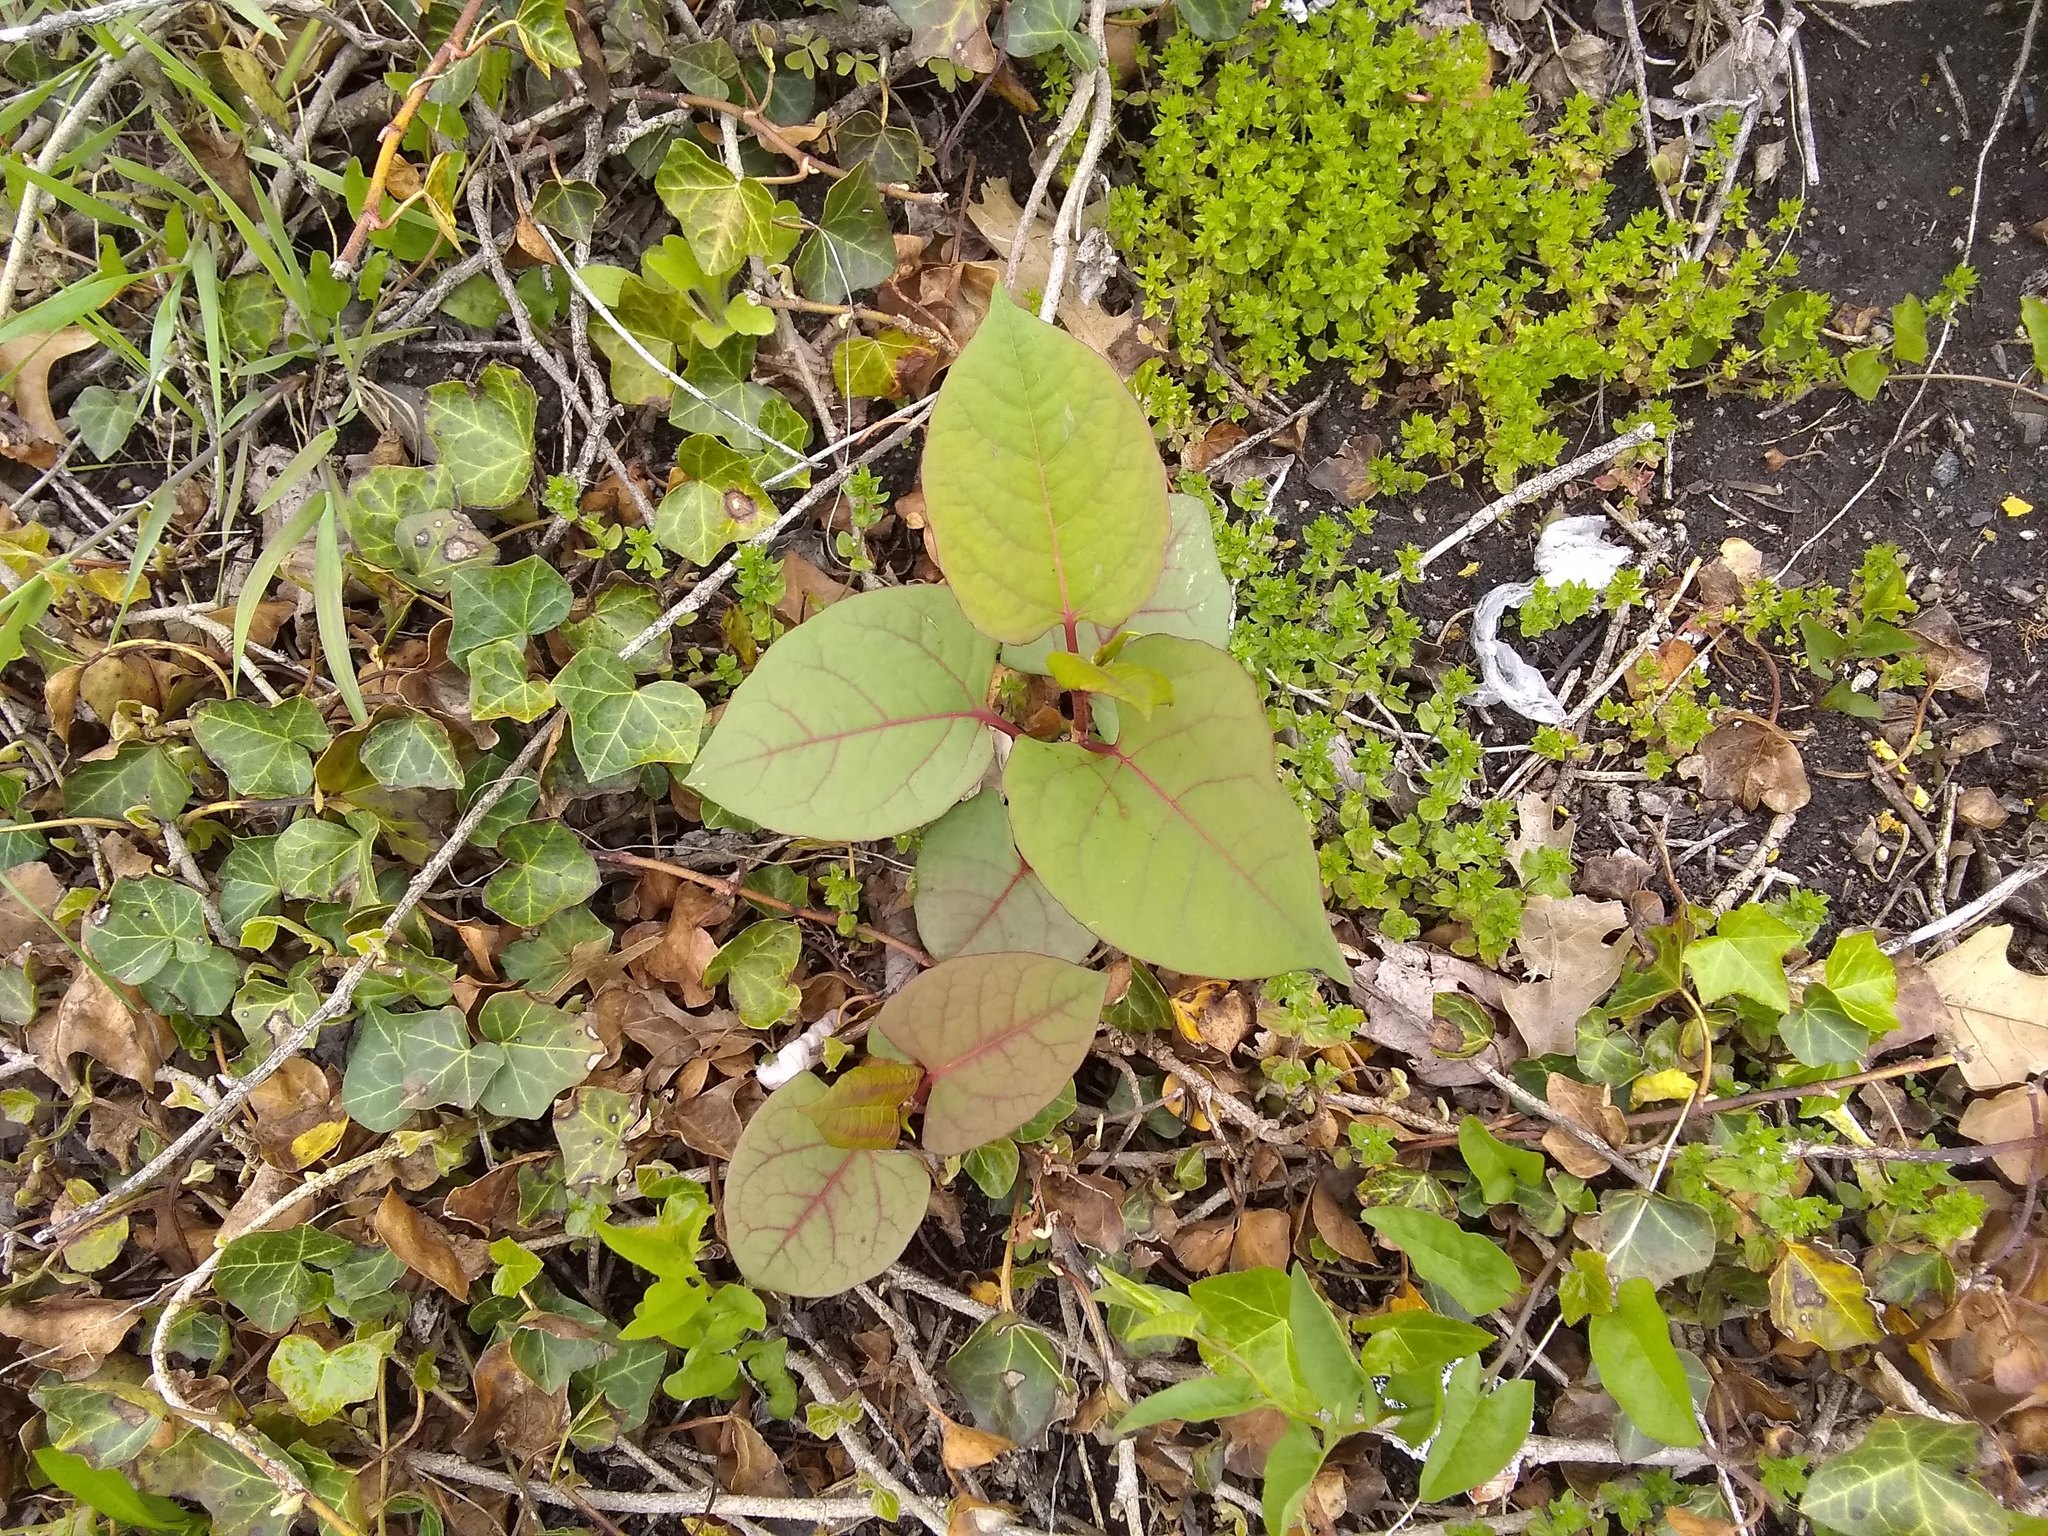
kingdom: Plantae
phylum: Tracheophyta
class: Magnoliopsida
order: Caryophyllales
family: Polygonaceae
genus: Reynoutria
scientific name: Reynoutria japonica
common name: Japanese knotweed
